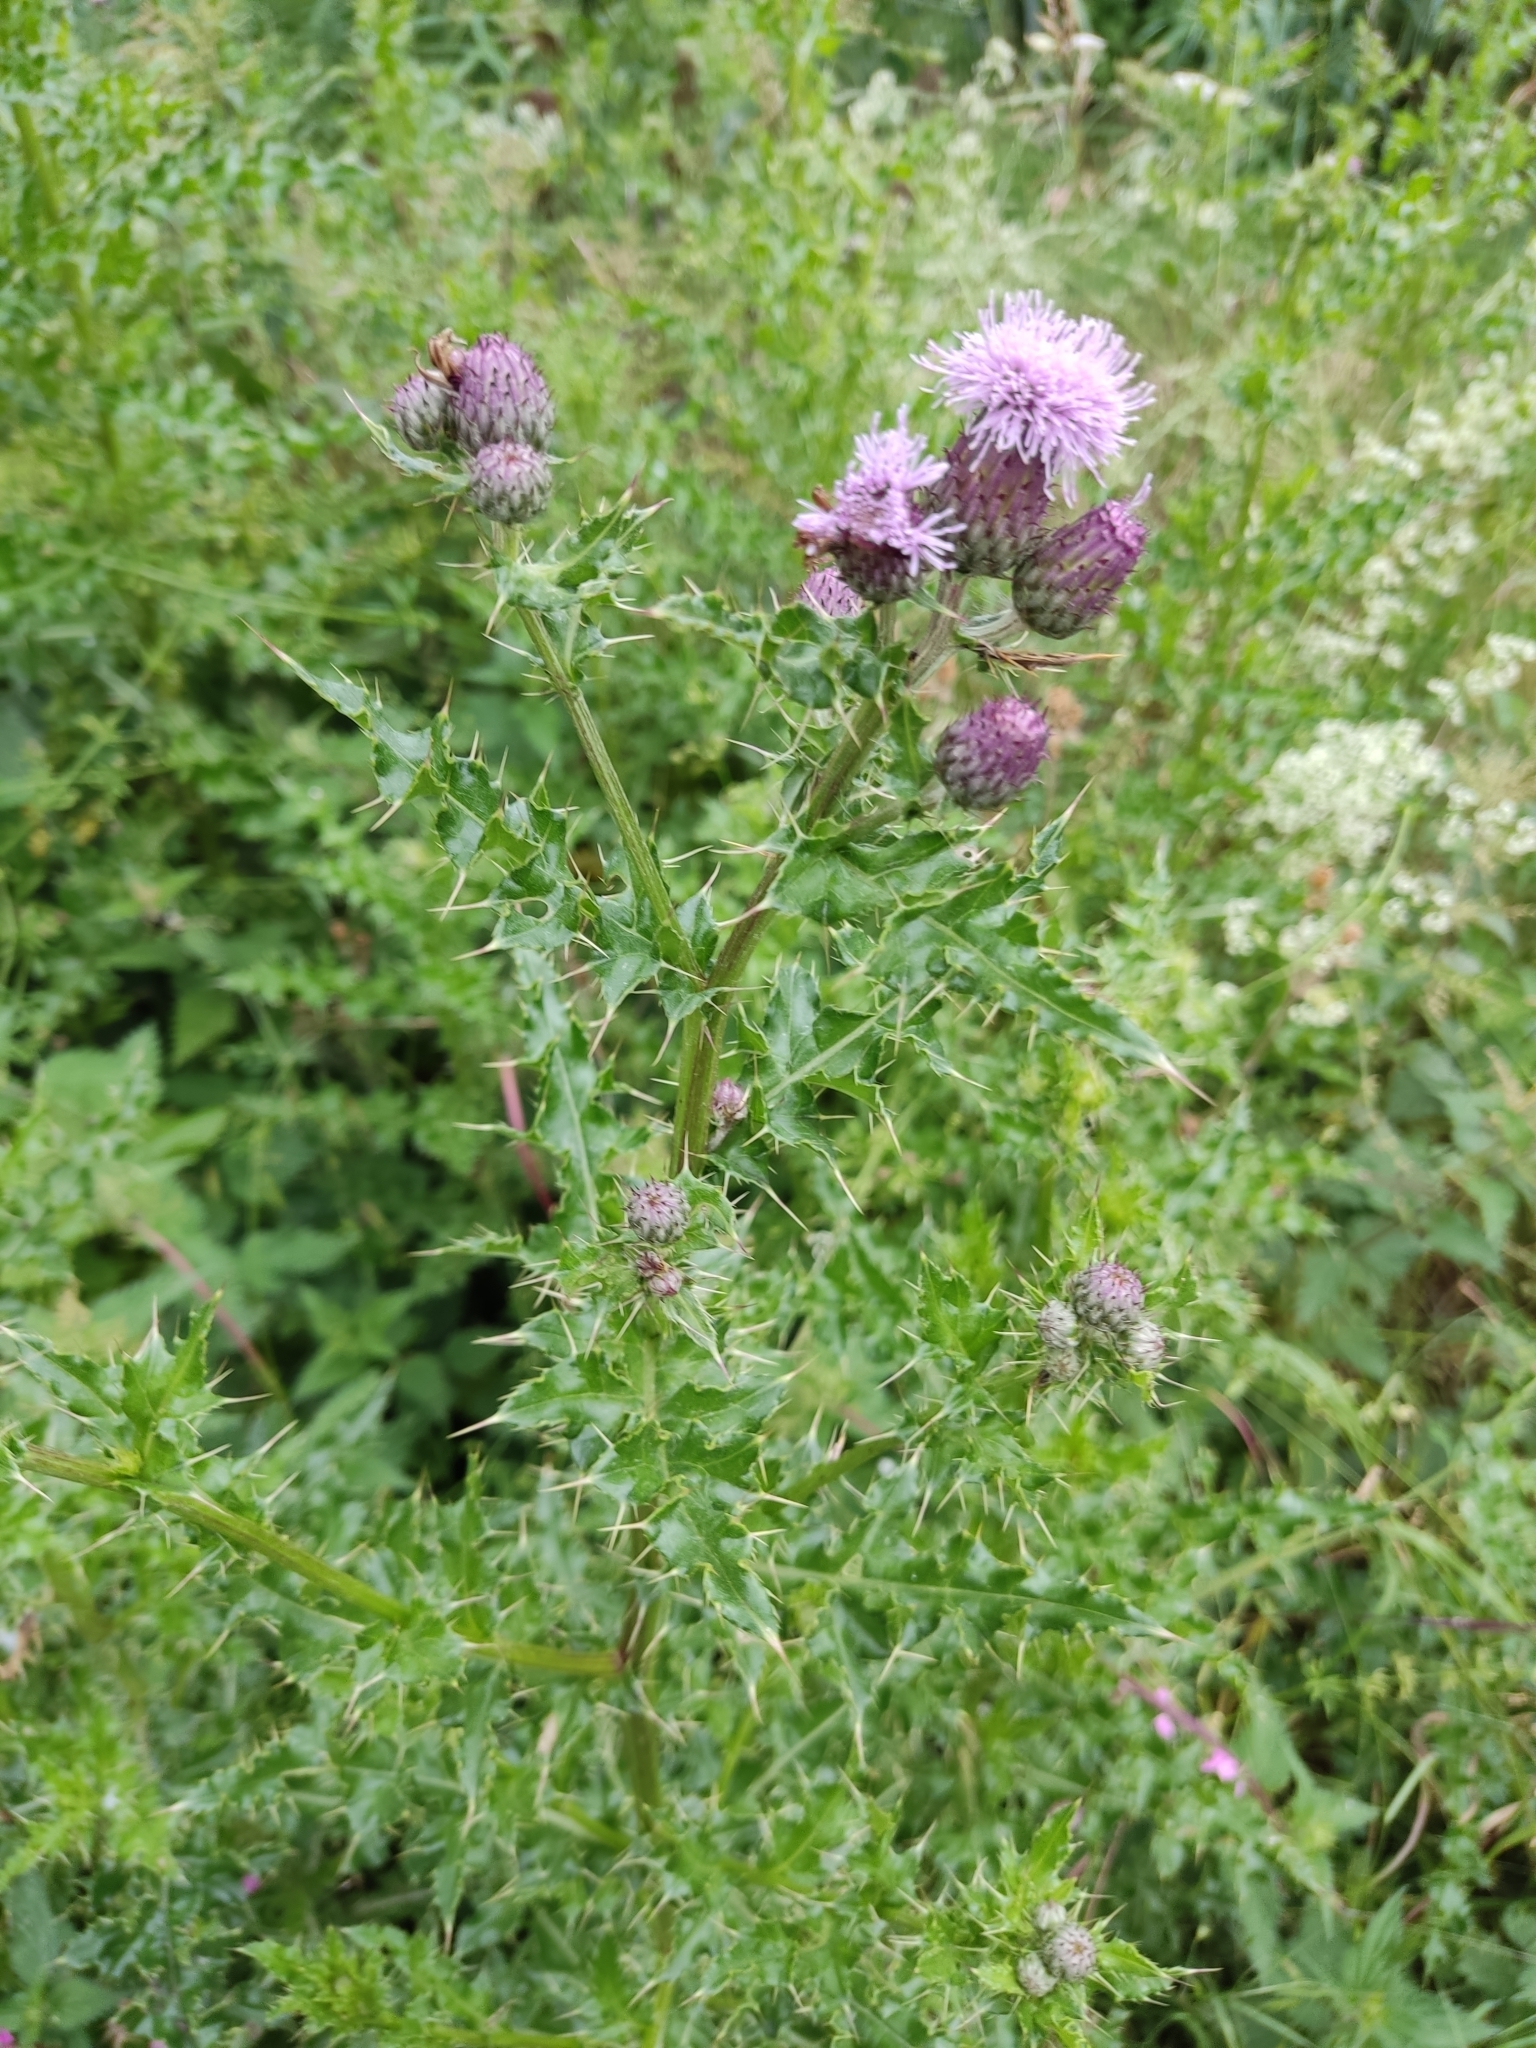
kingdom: Plantae
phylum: Tracheophyta
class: Magnoliopsida
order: Asterales
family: Asteraceae
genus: Cirsium
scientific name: Cirsium arvense
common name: Creeping thistle
